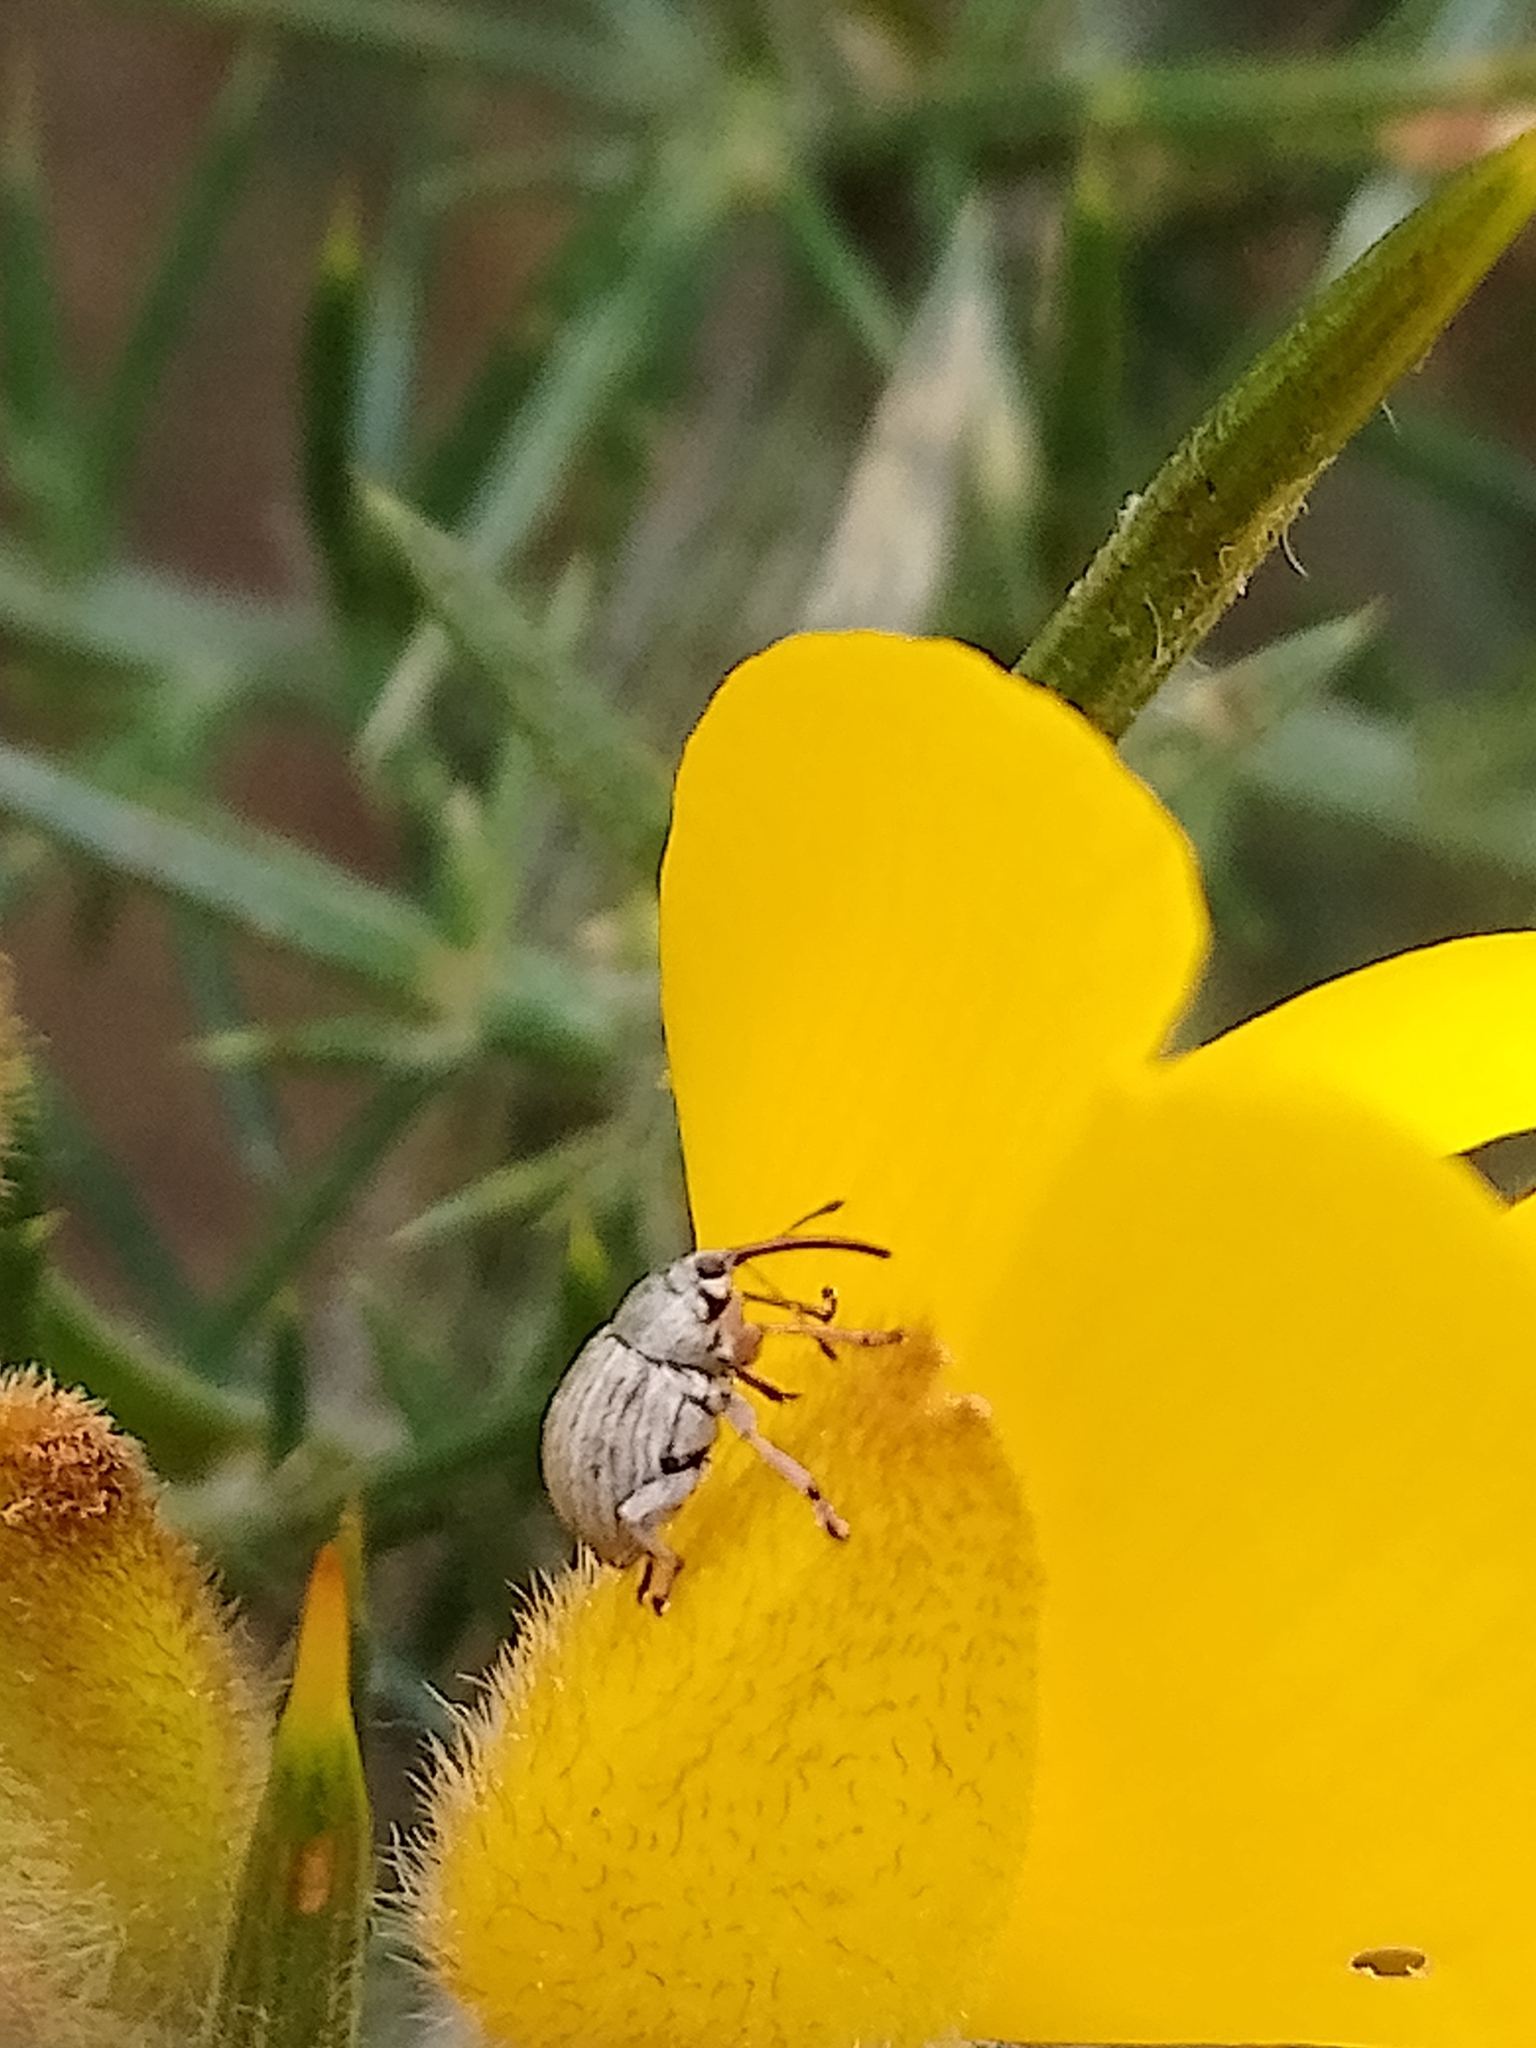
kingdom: Animalia
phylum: Arthropoda
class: Insecta
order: Coleoptera
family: Brentidae
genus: Exapion
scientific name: Exapion ulicis
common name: Gorse seed weevil
